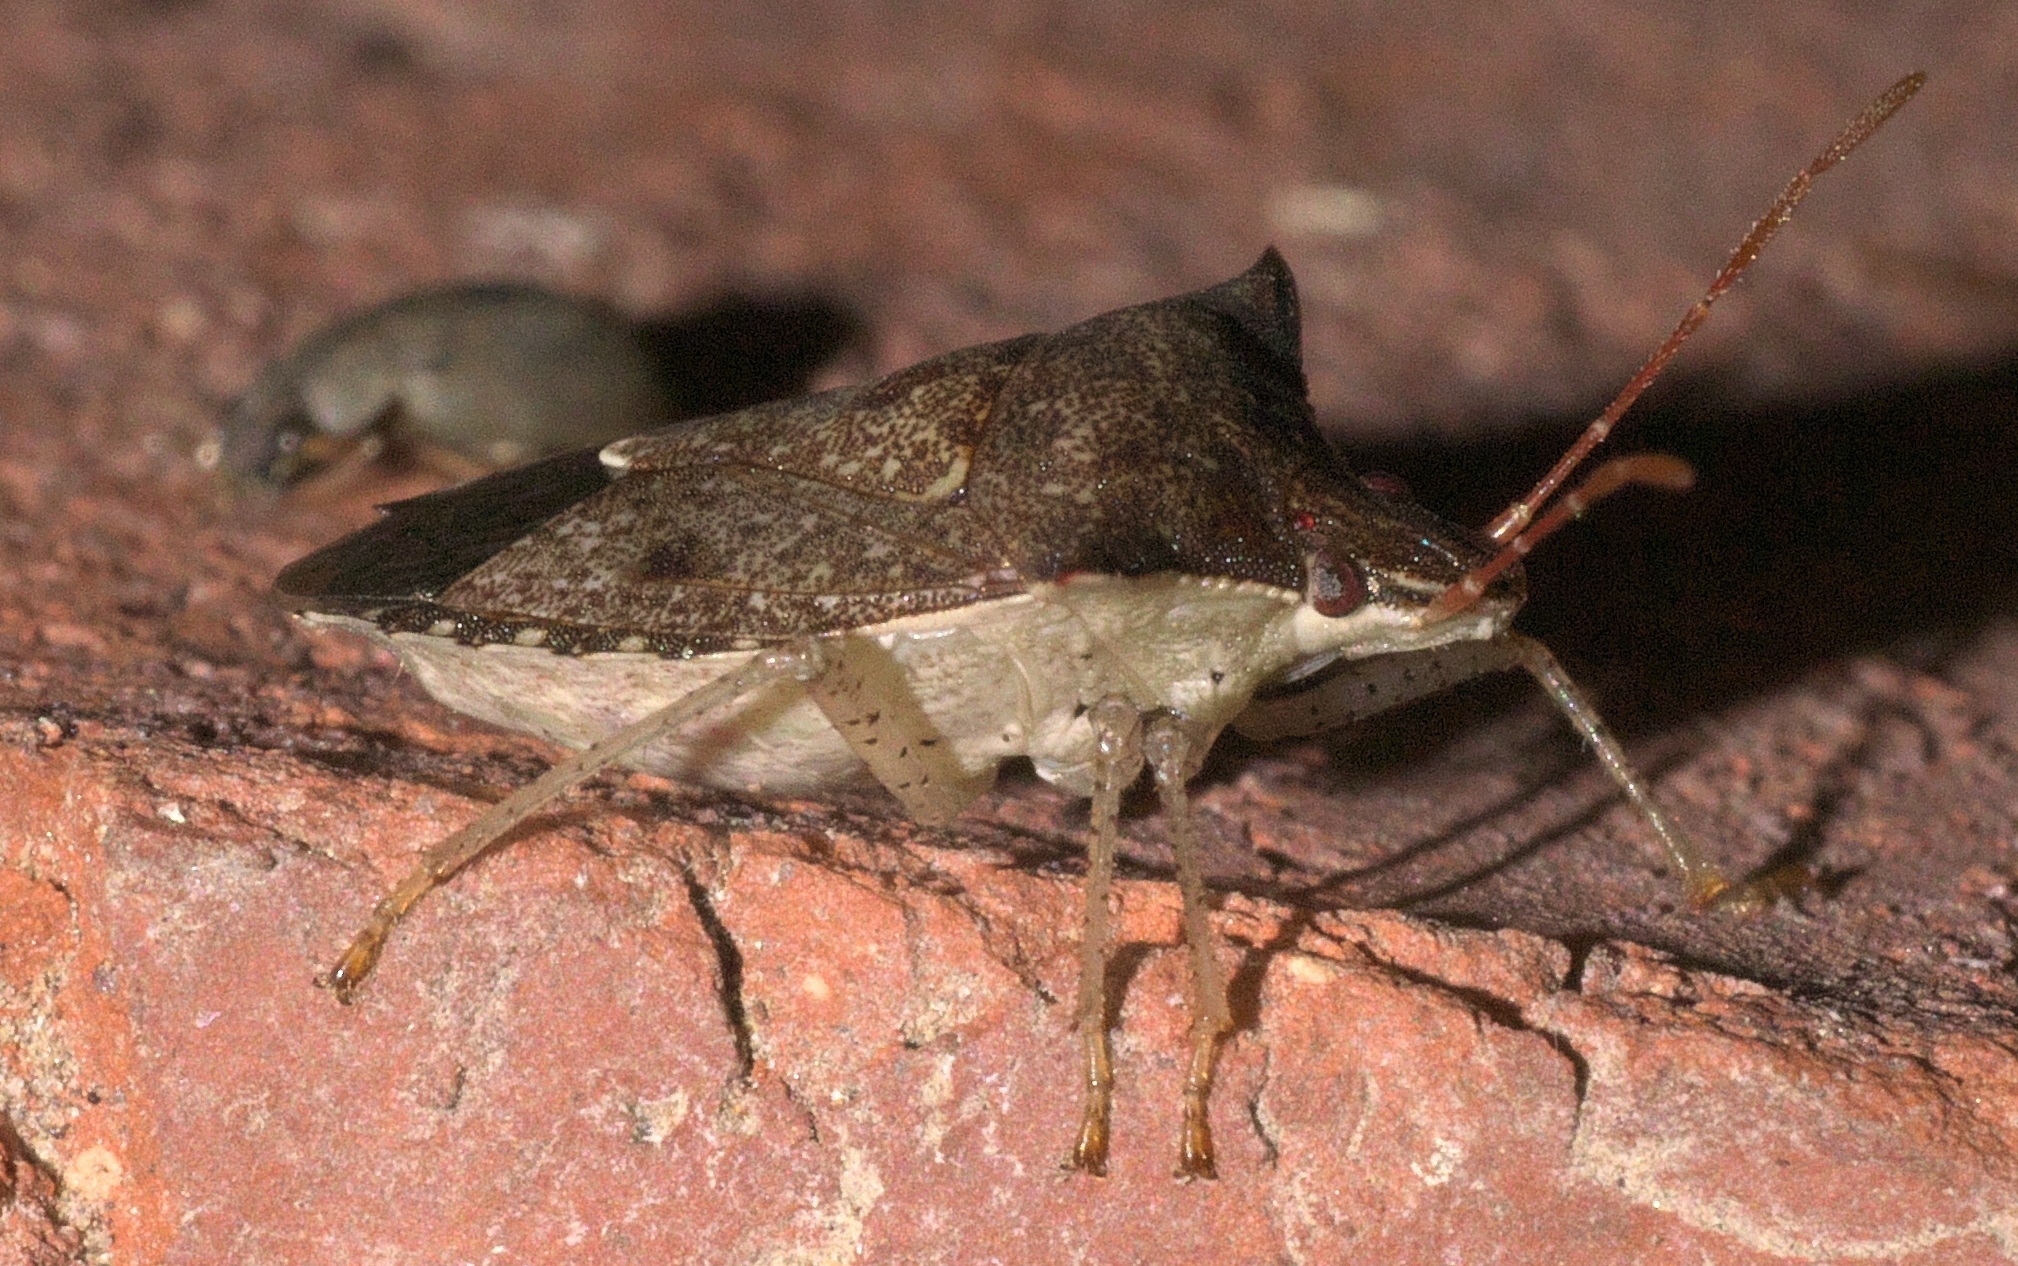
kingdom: Animalia
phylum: Arthropoda
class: Insecta
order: Hemiptera
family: Pentatomidae
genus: Euschistus
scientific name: Euschistus tristigmus
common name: Dusky stink bug
